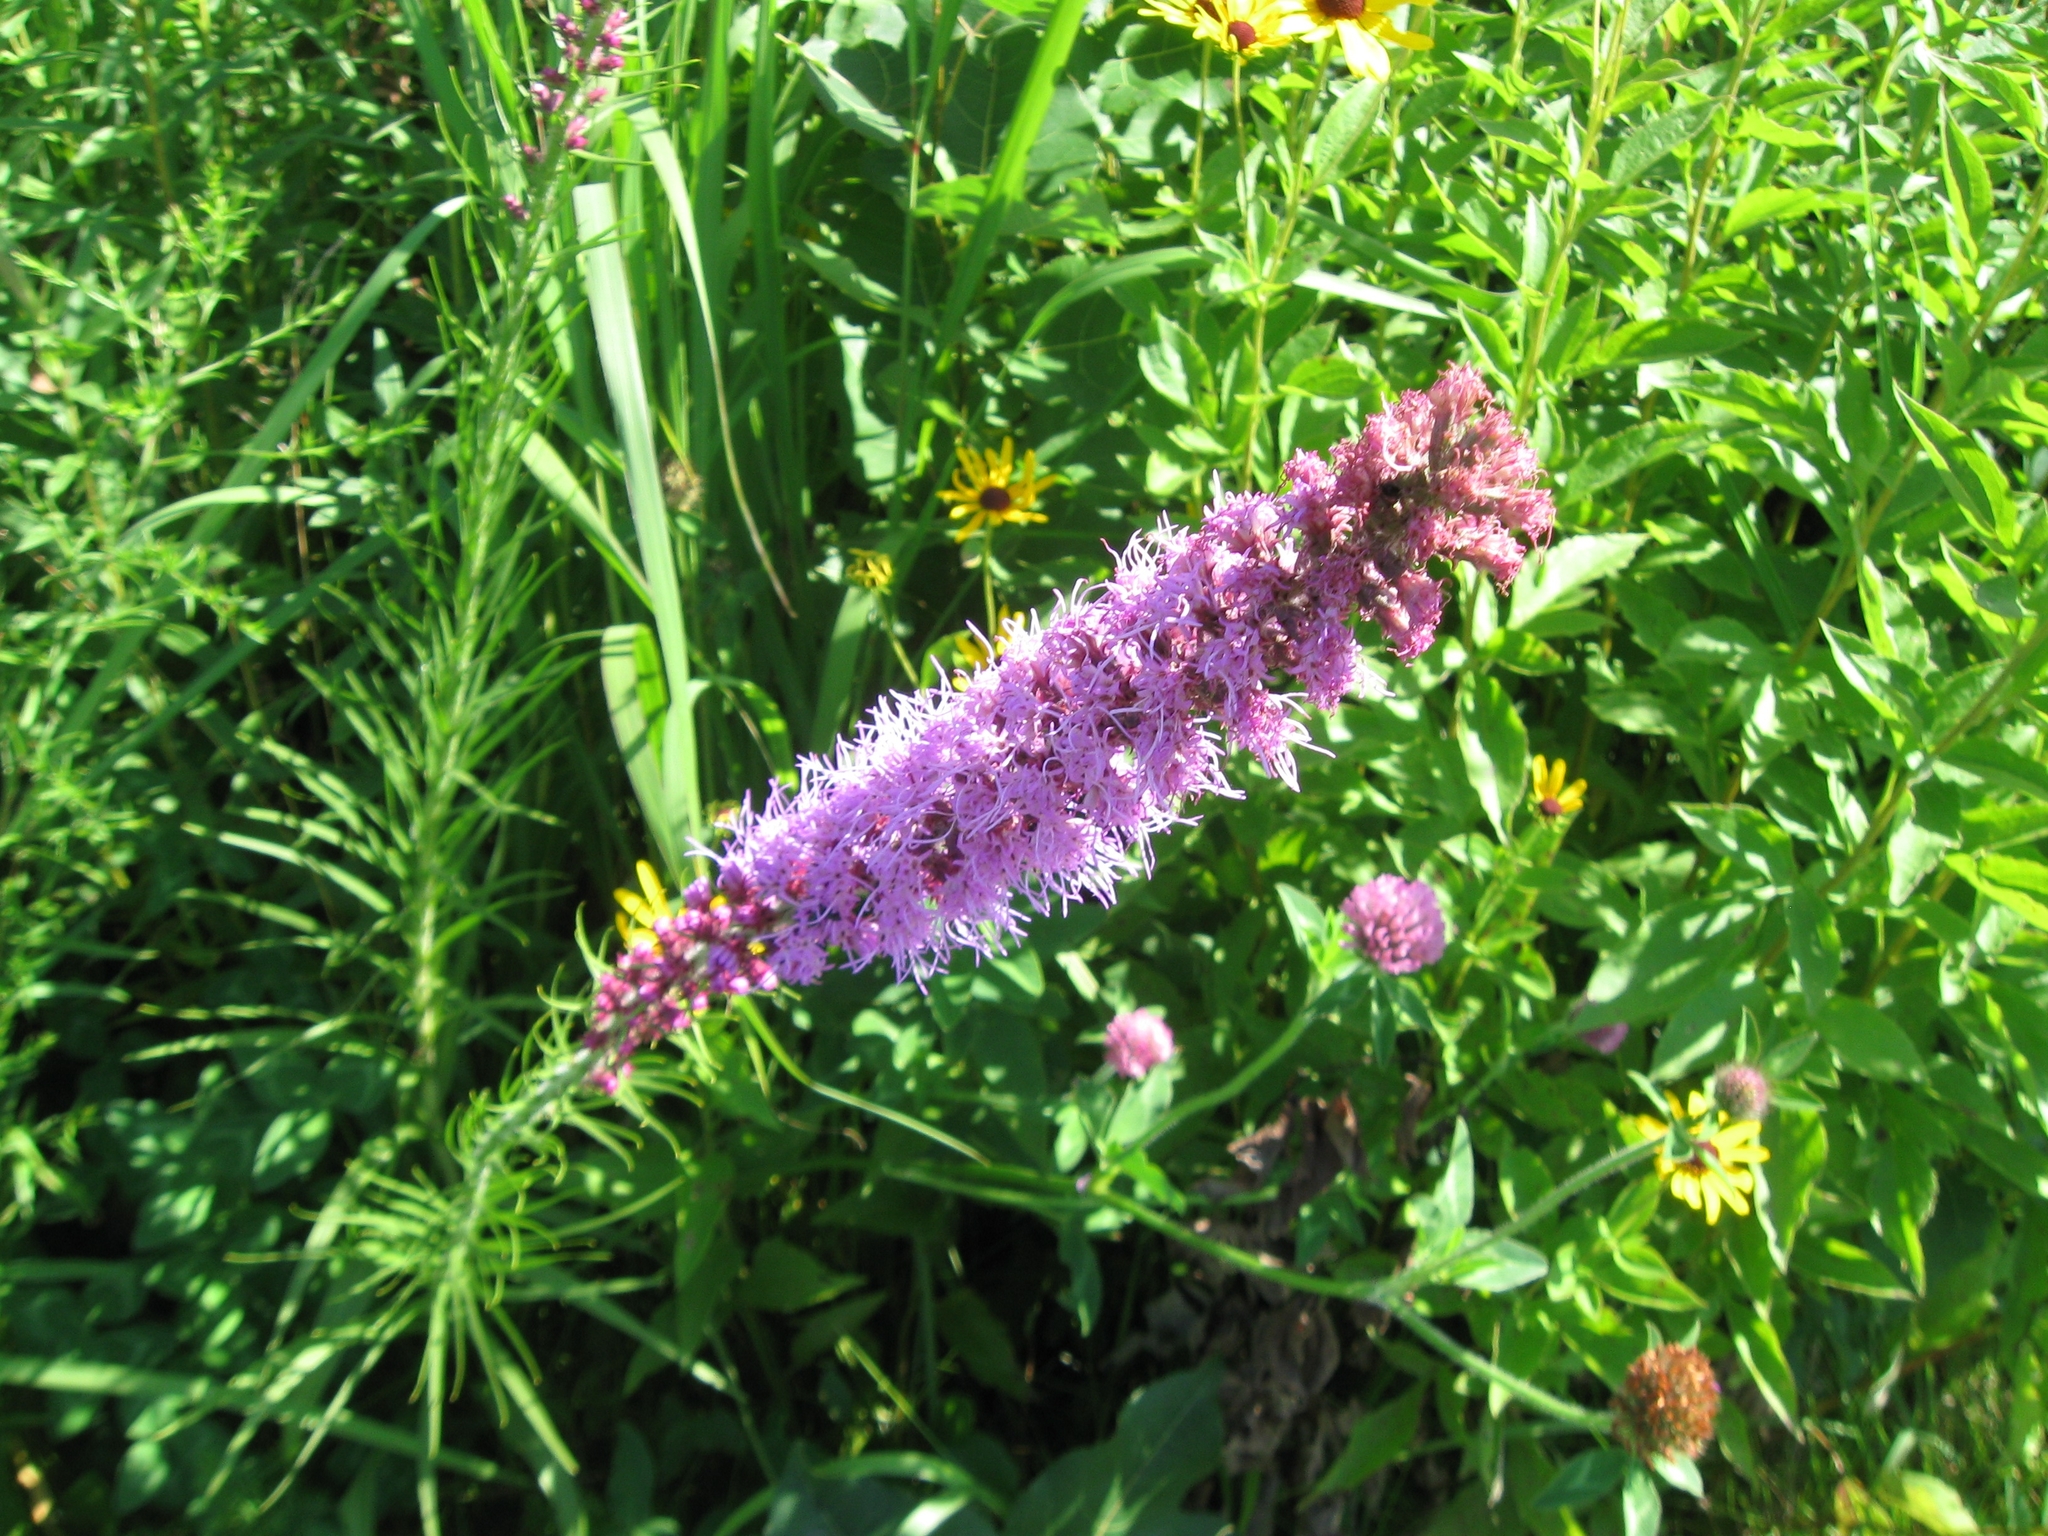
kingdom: Plantae
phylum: Tracheophyta
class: Magnoliopsida
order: Asterales
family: Asteraceae
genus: Liatris
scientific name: Liatris pycnostachya
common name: Cattail gayfeather
